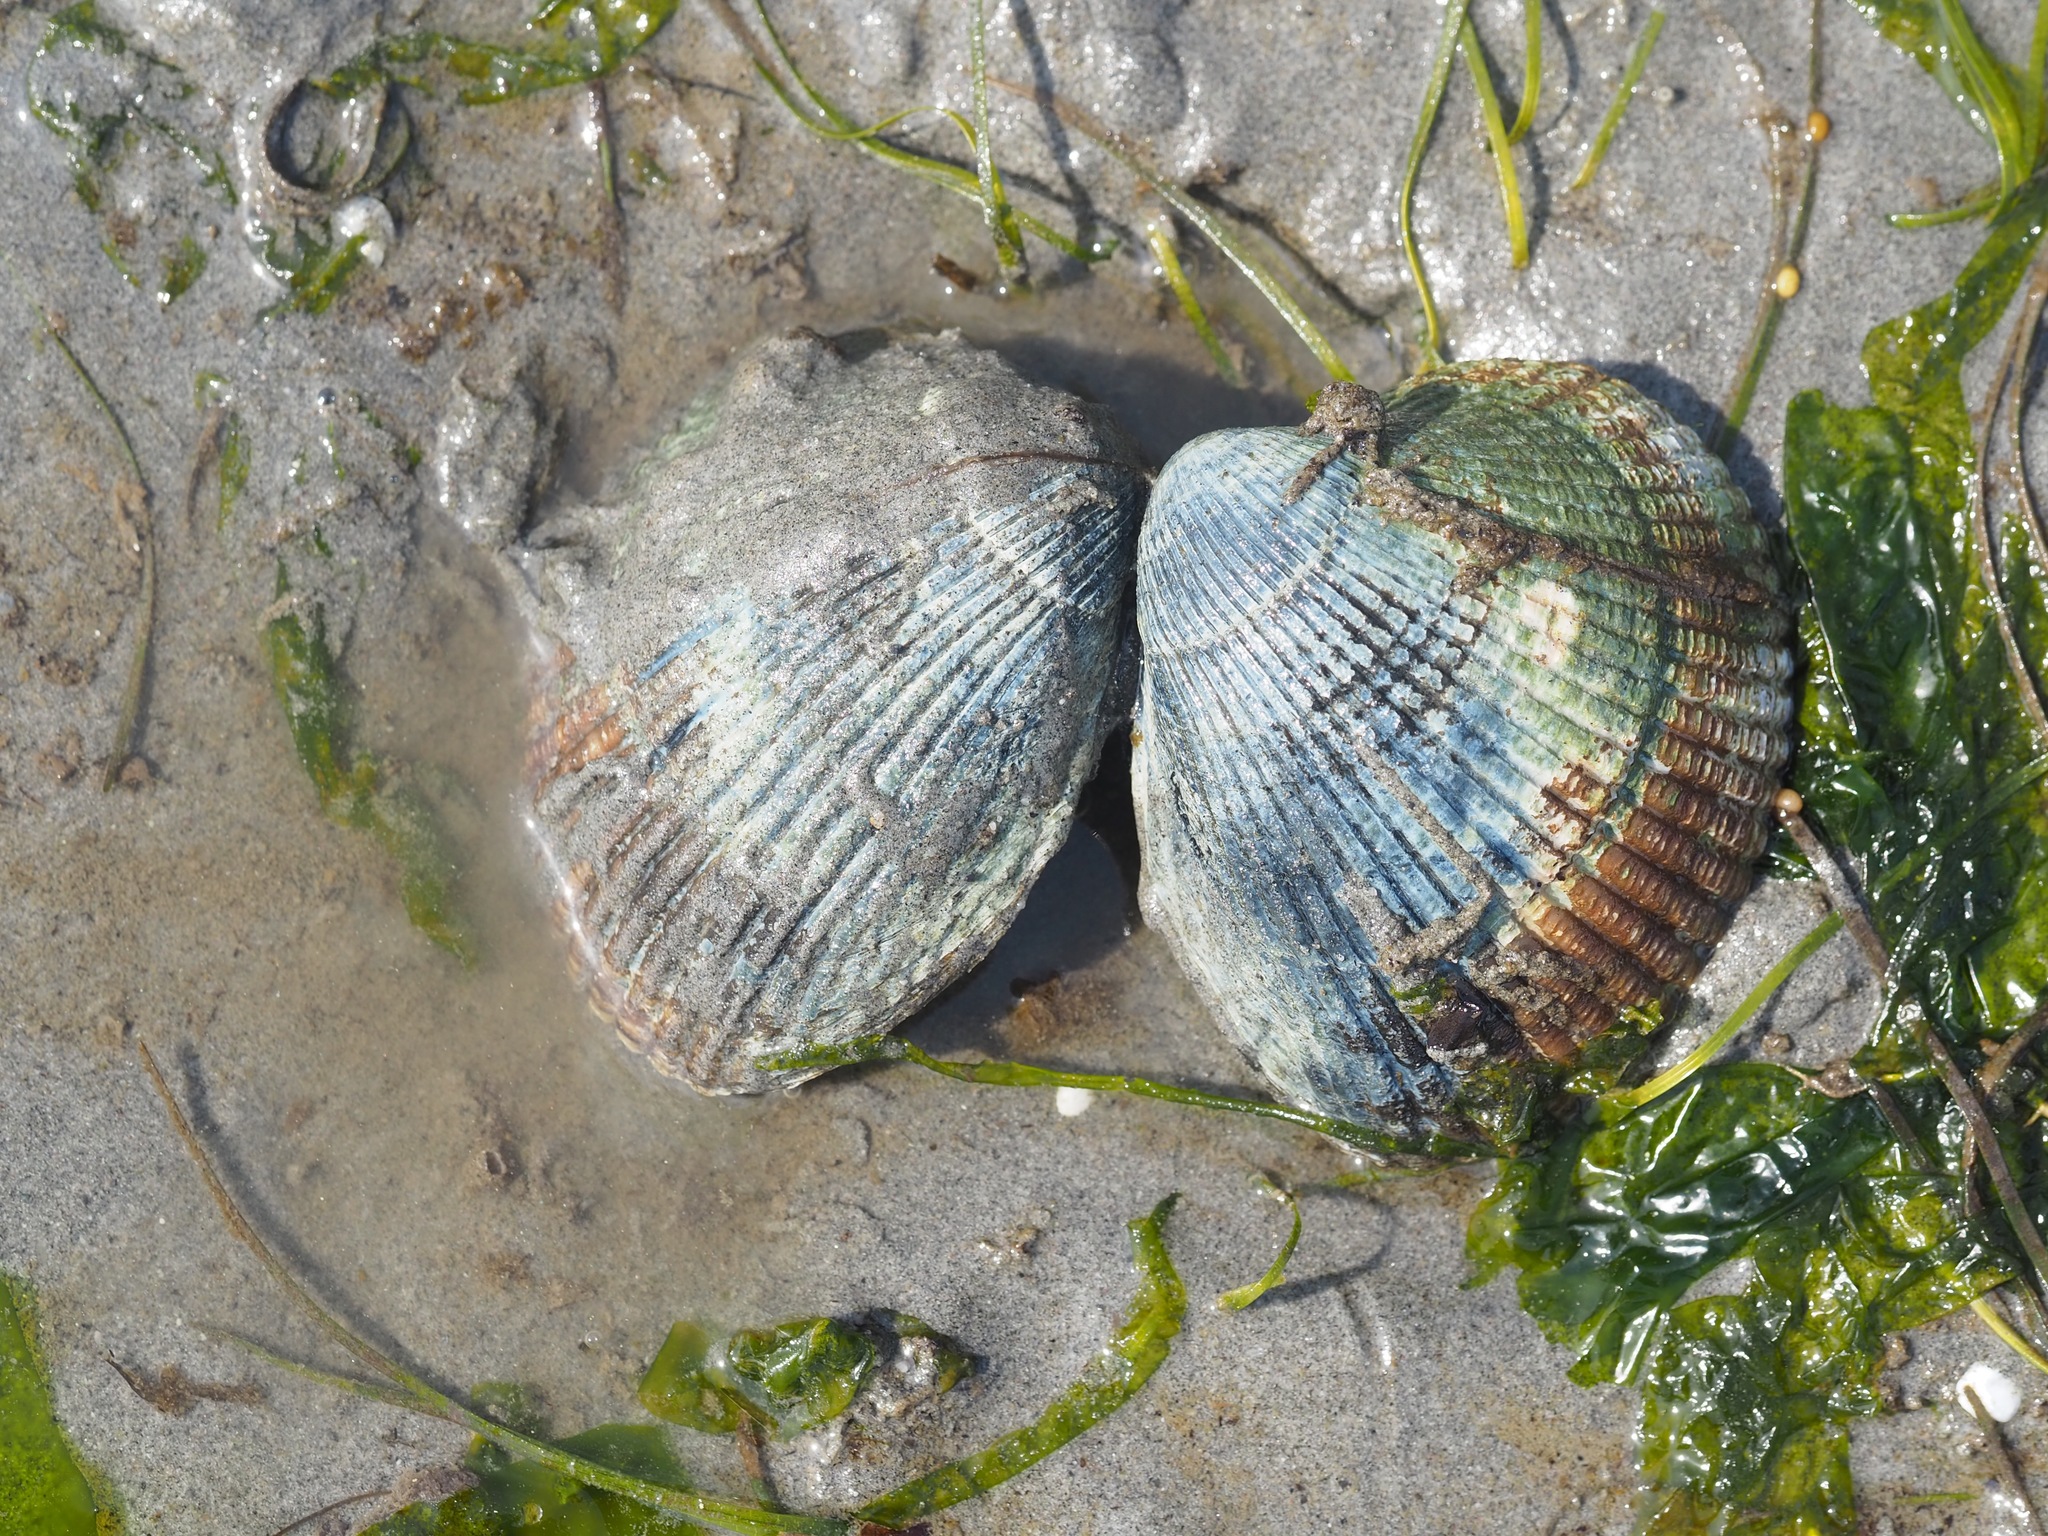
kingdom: Animalia
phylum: Mollusca
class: Bivalvia
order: Cardiida
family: Cardiidae
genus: Clinocardium
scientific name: Clinocardium nuttallii
